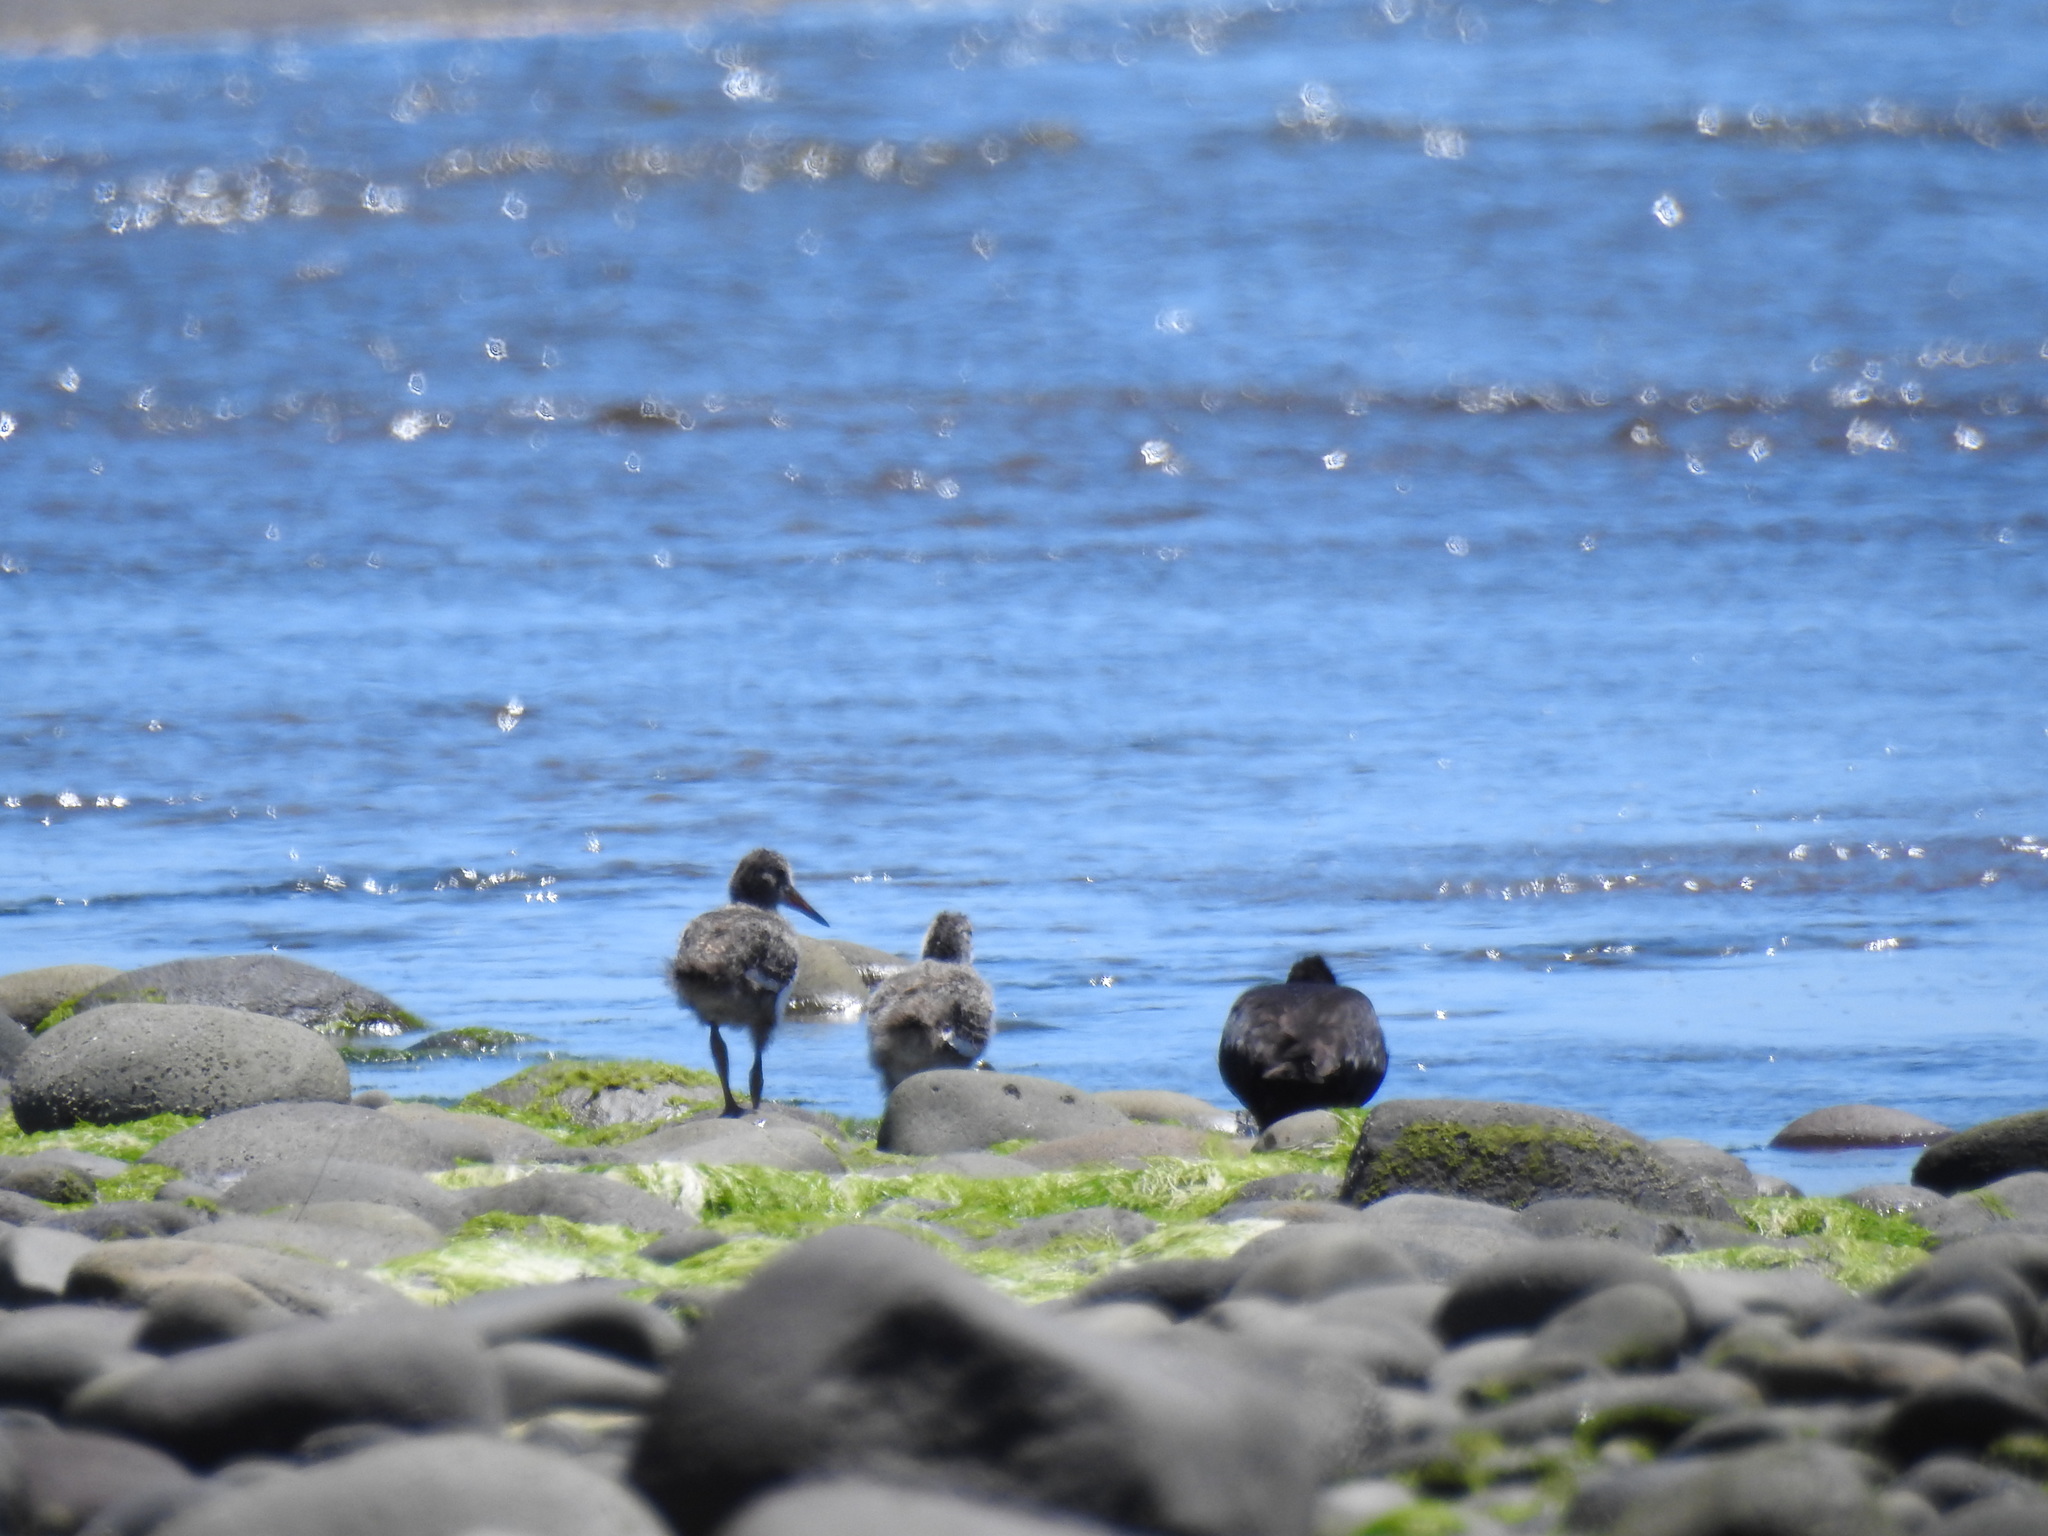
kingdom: Animalia
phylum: Chordata
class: Aves
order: Charadriiformes
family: Haematopodidae
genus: Haematopus
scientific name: Haematopus unicolor
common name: Variable oystercatcher
